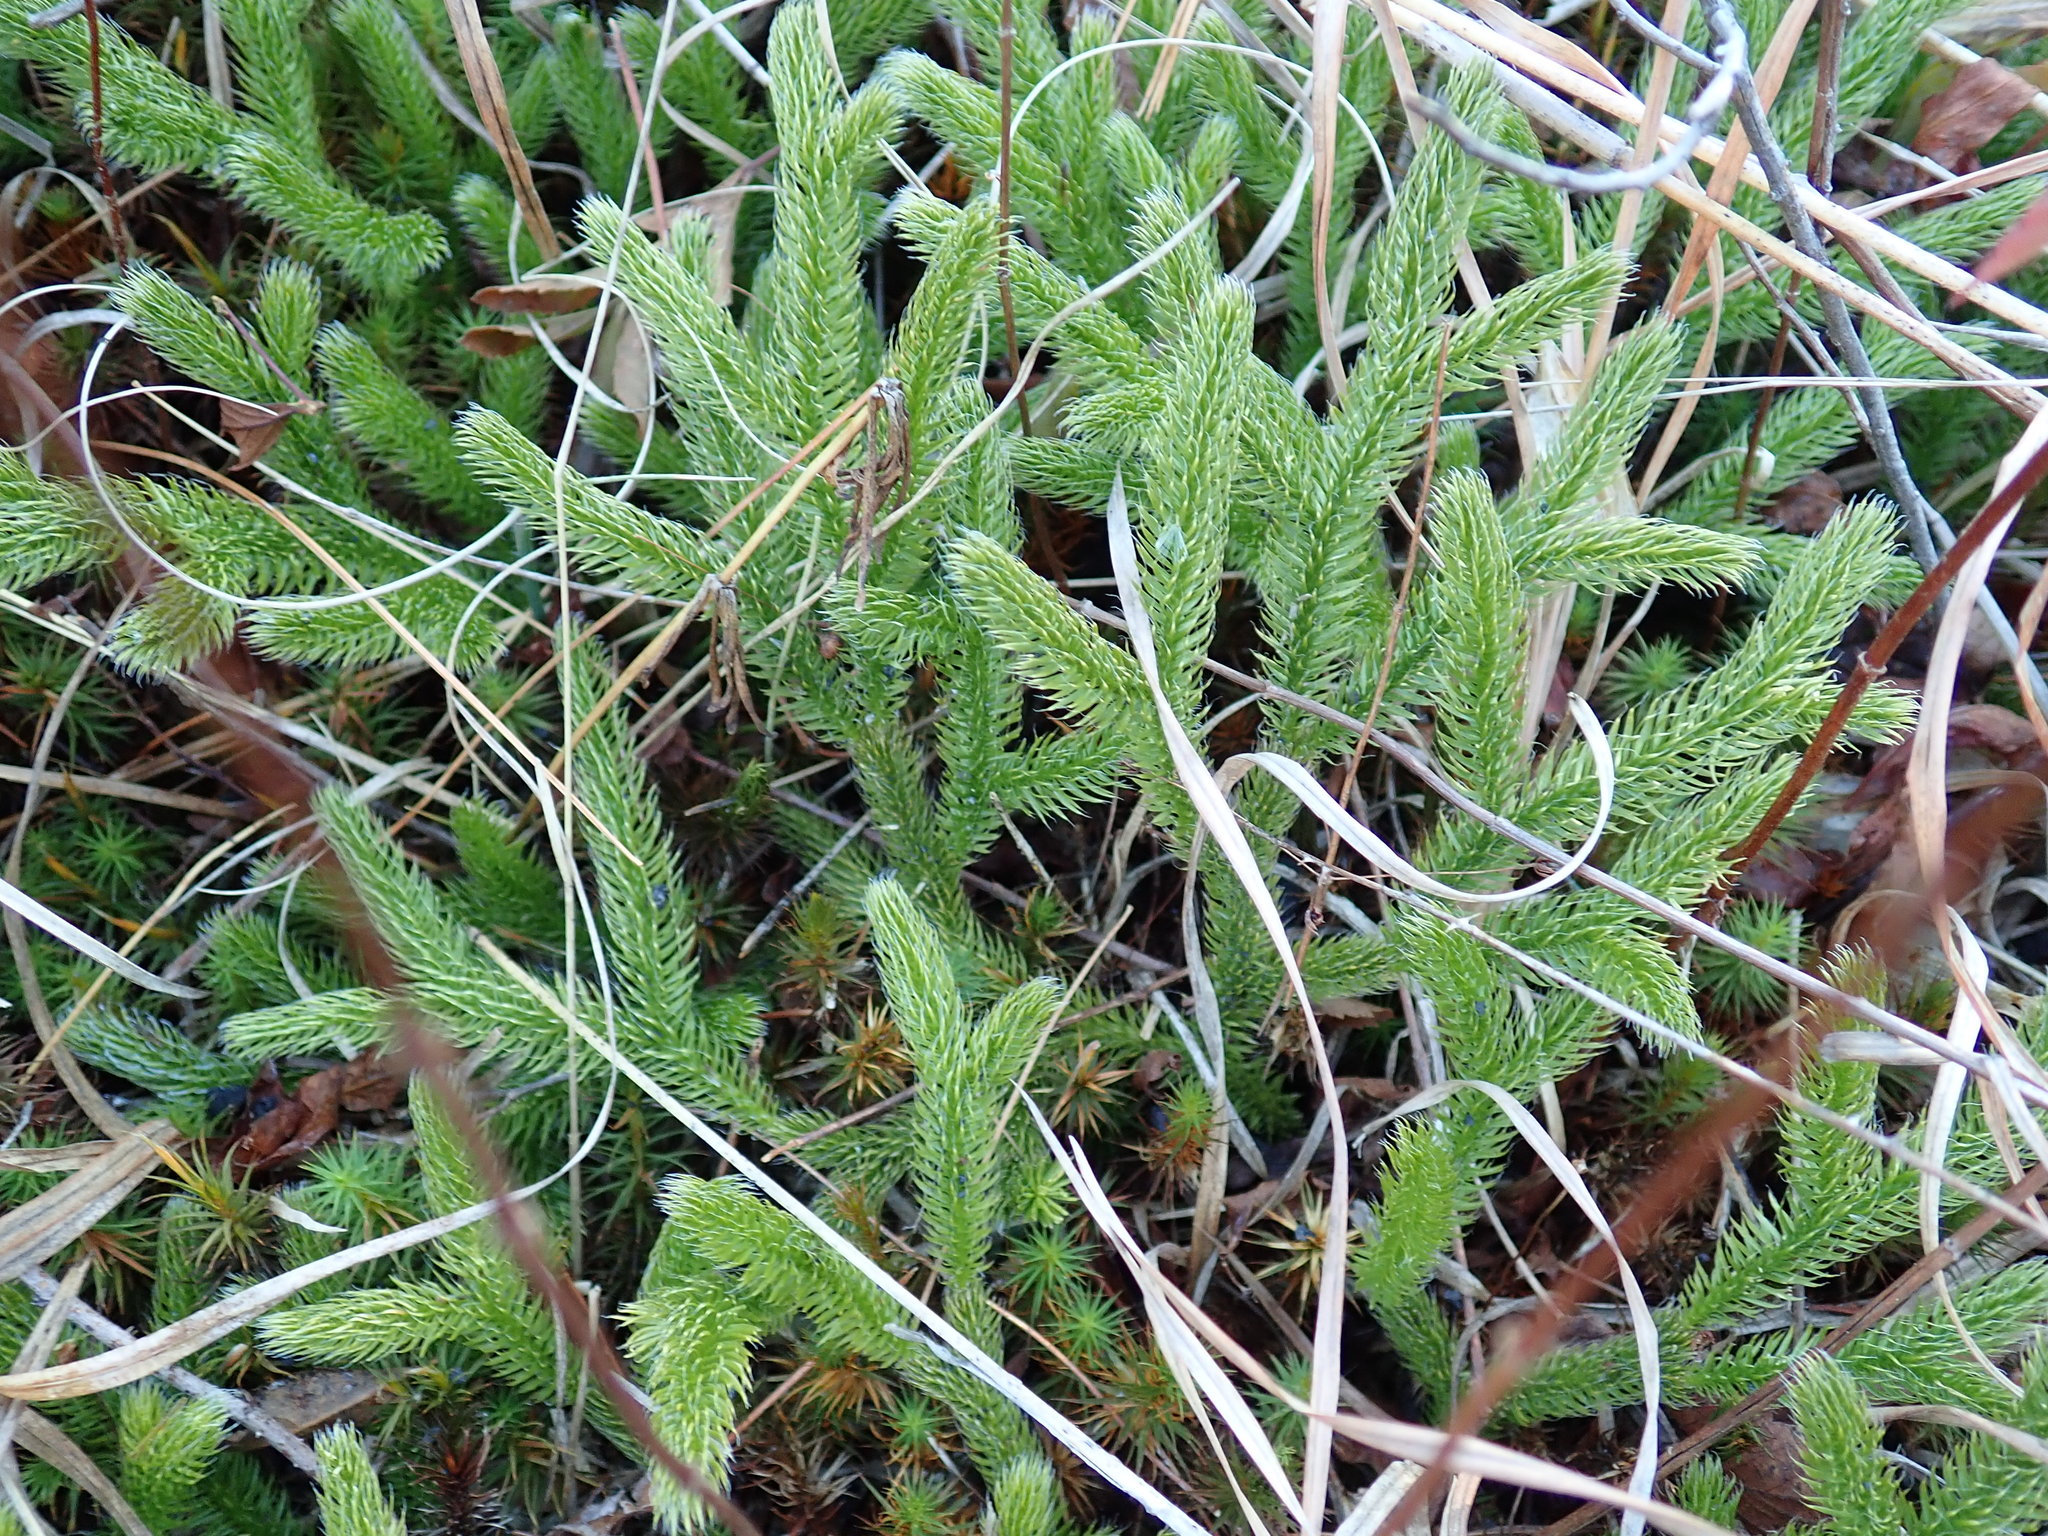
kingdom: Plantae
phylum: Tracheophyta
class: Lycopodiopsida
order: Lycopodiales
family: Lycopodiaceae
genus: Lycopodium
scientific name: Lycopodium clavatum
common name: Stag's-horn clubmoss
